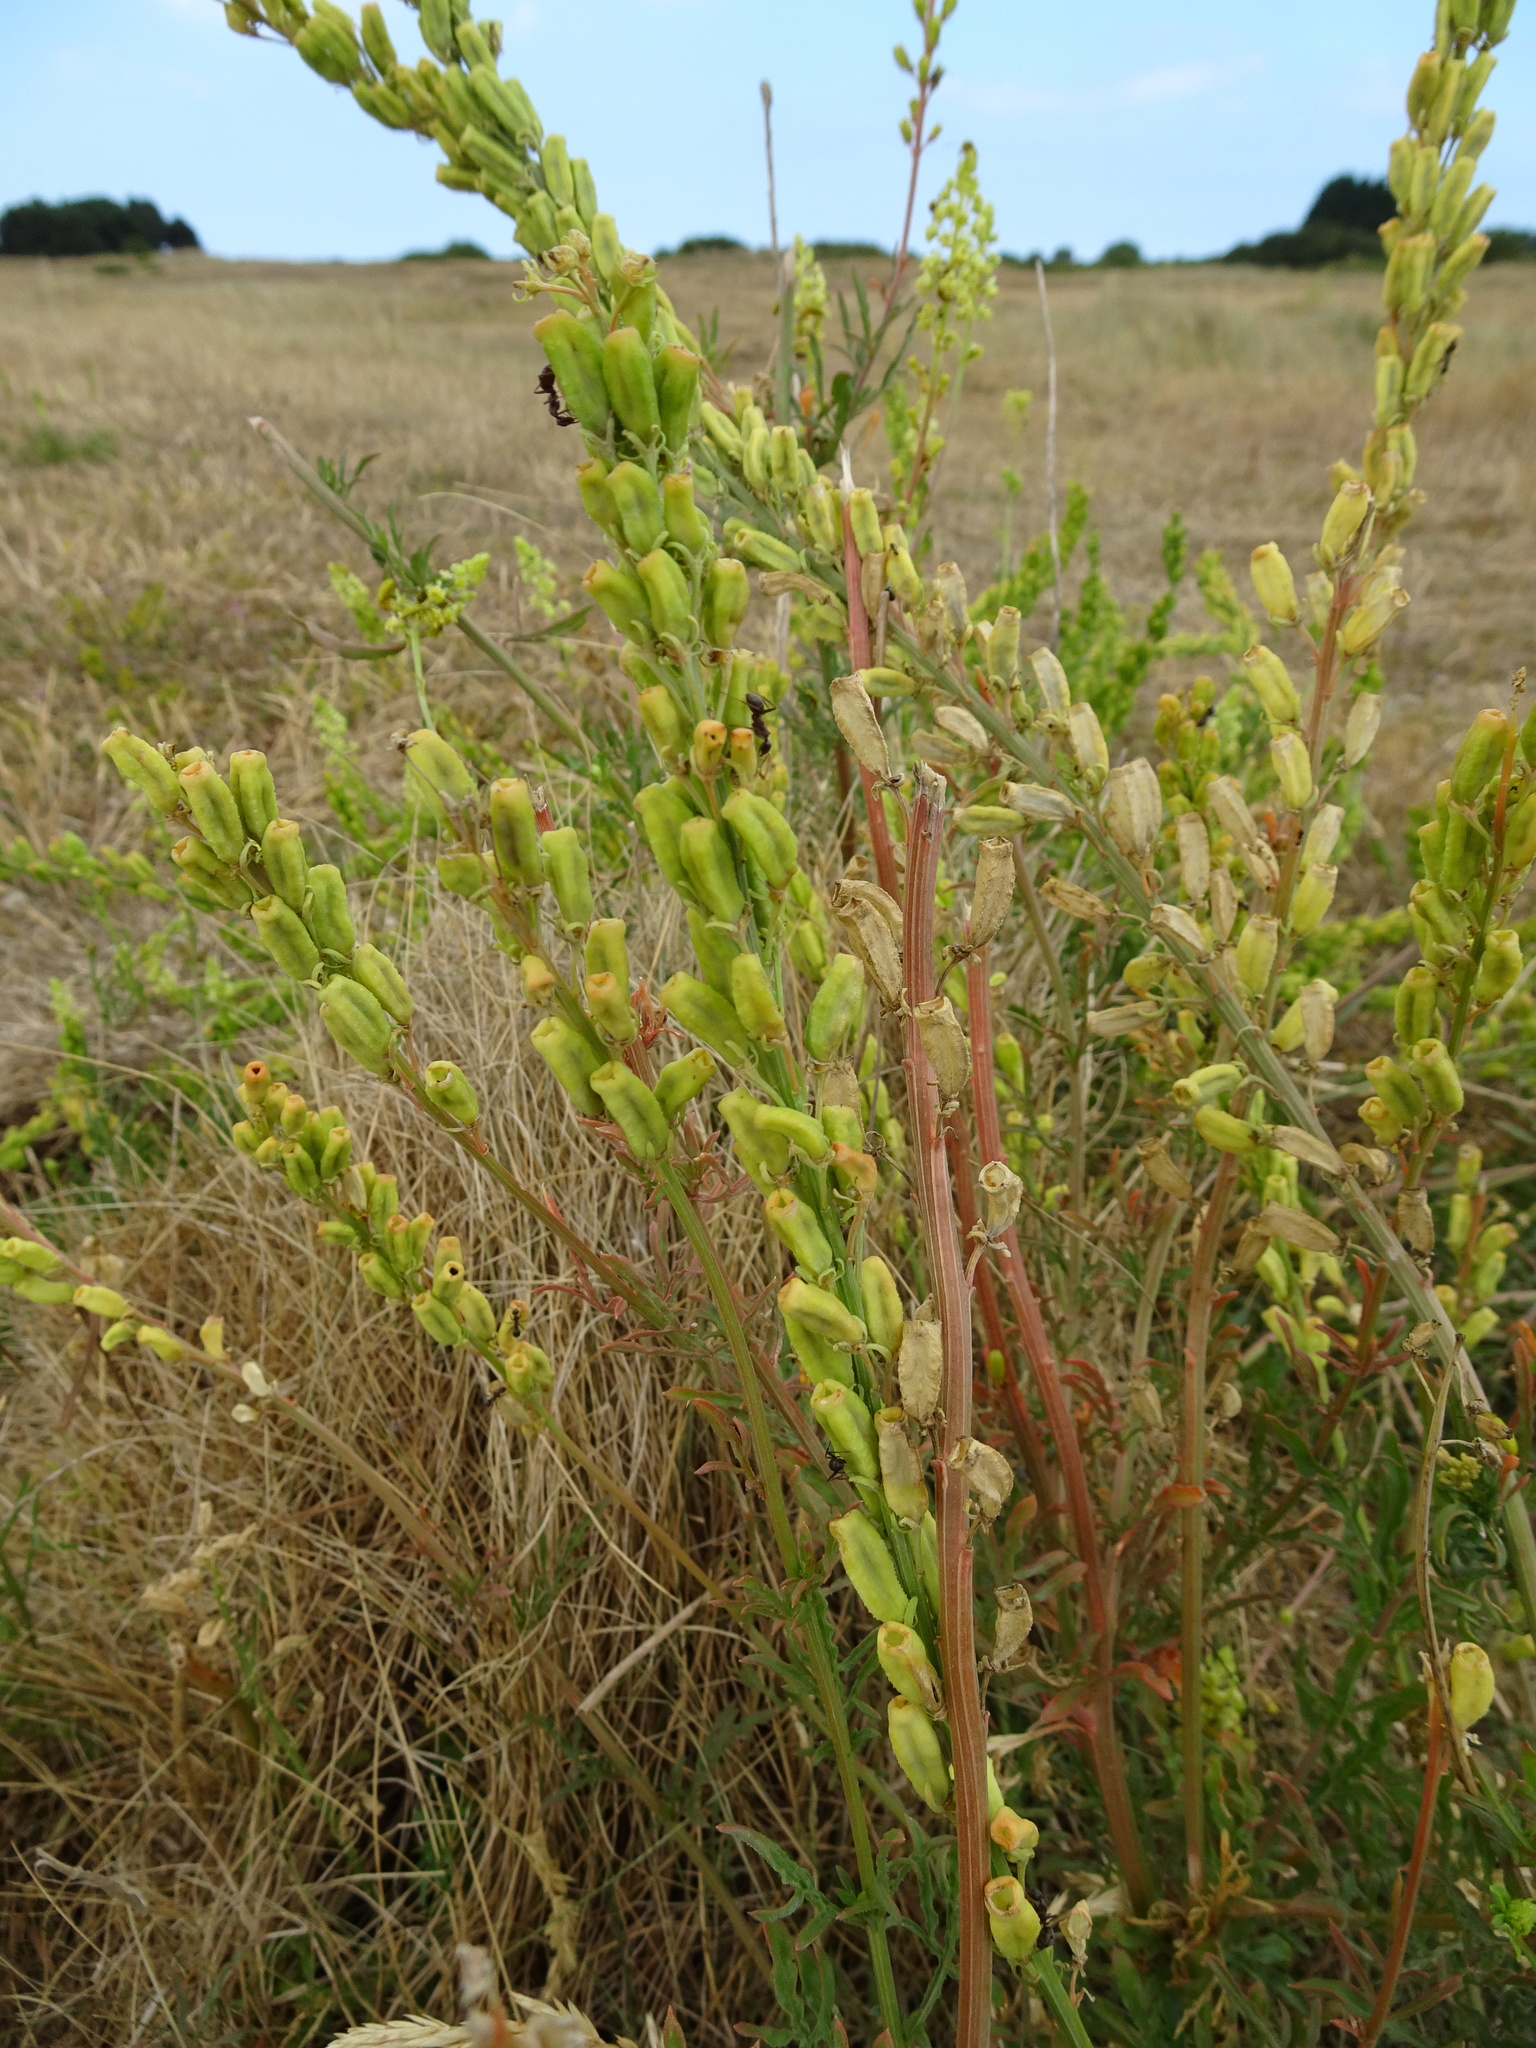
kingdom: Plantae
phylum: Tracheophyta
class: Magnoliopsida
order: Brassicales
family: Resedaceae
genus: Reseda
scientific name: Reseda lutea
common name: Wild mignonette
